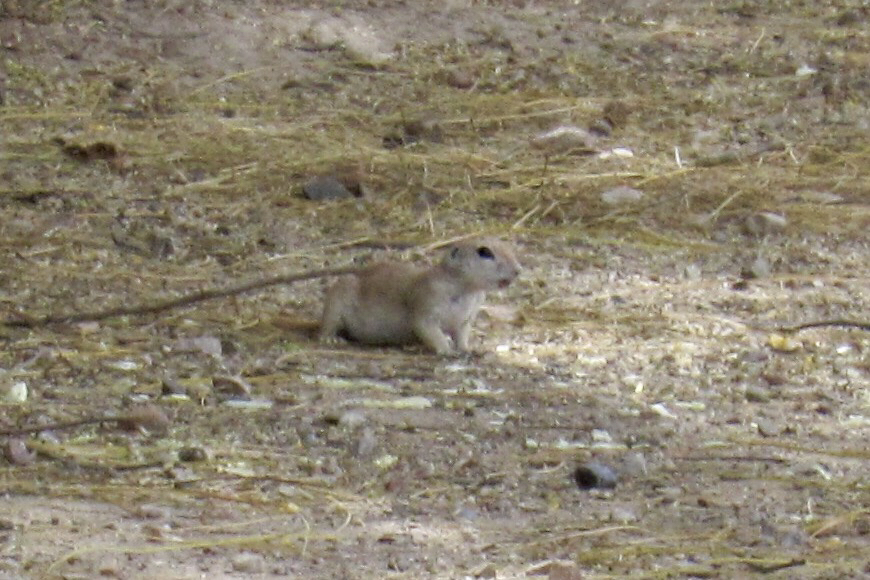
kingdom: Animalia
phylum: Chordata
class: Mammalia
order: Rodentia
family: Sciuridae
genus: Xerospermophilus
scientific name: Xerospermophilus tereticaudus
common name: Round-tailed ground squirrel
